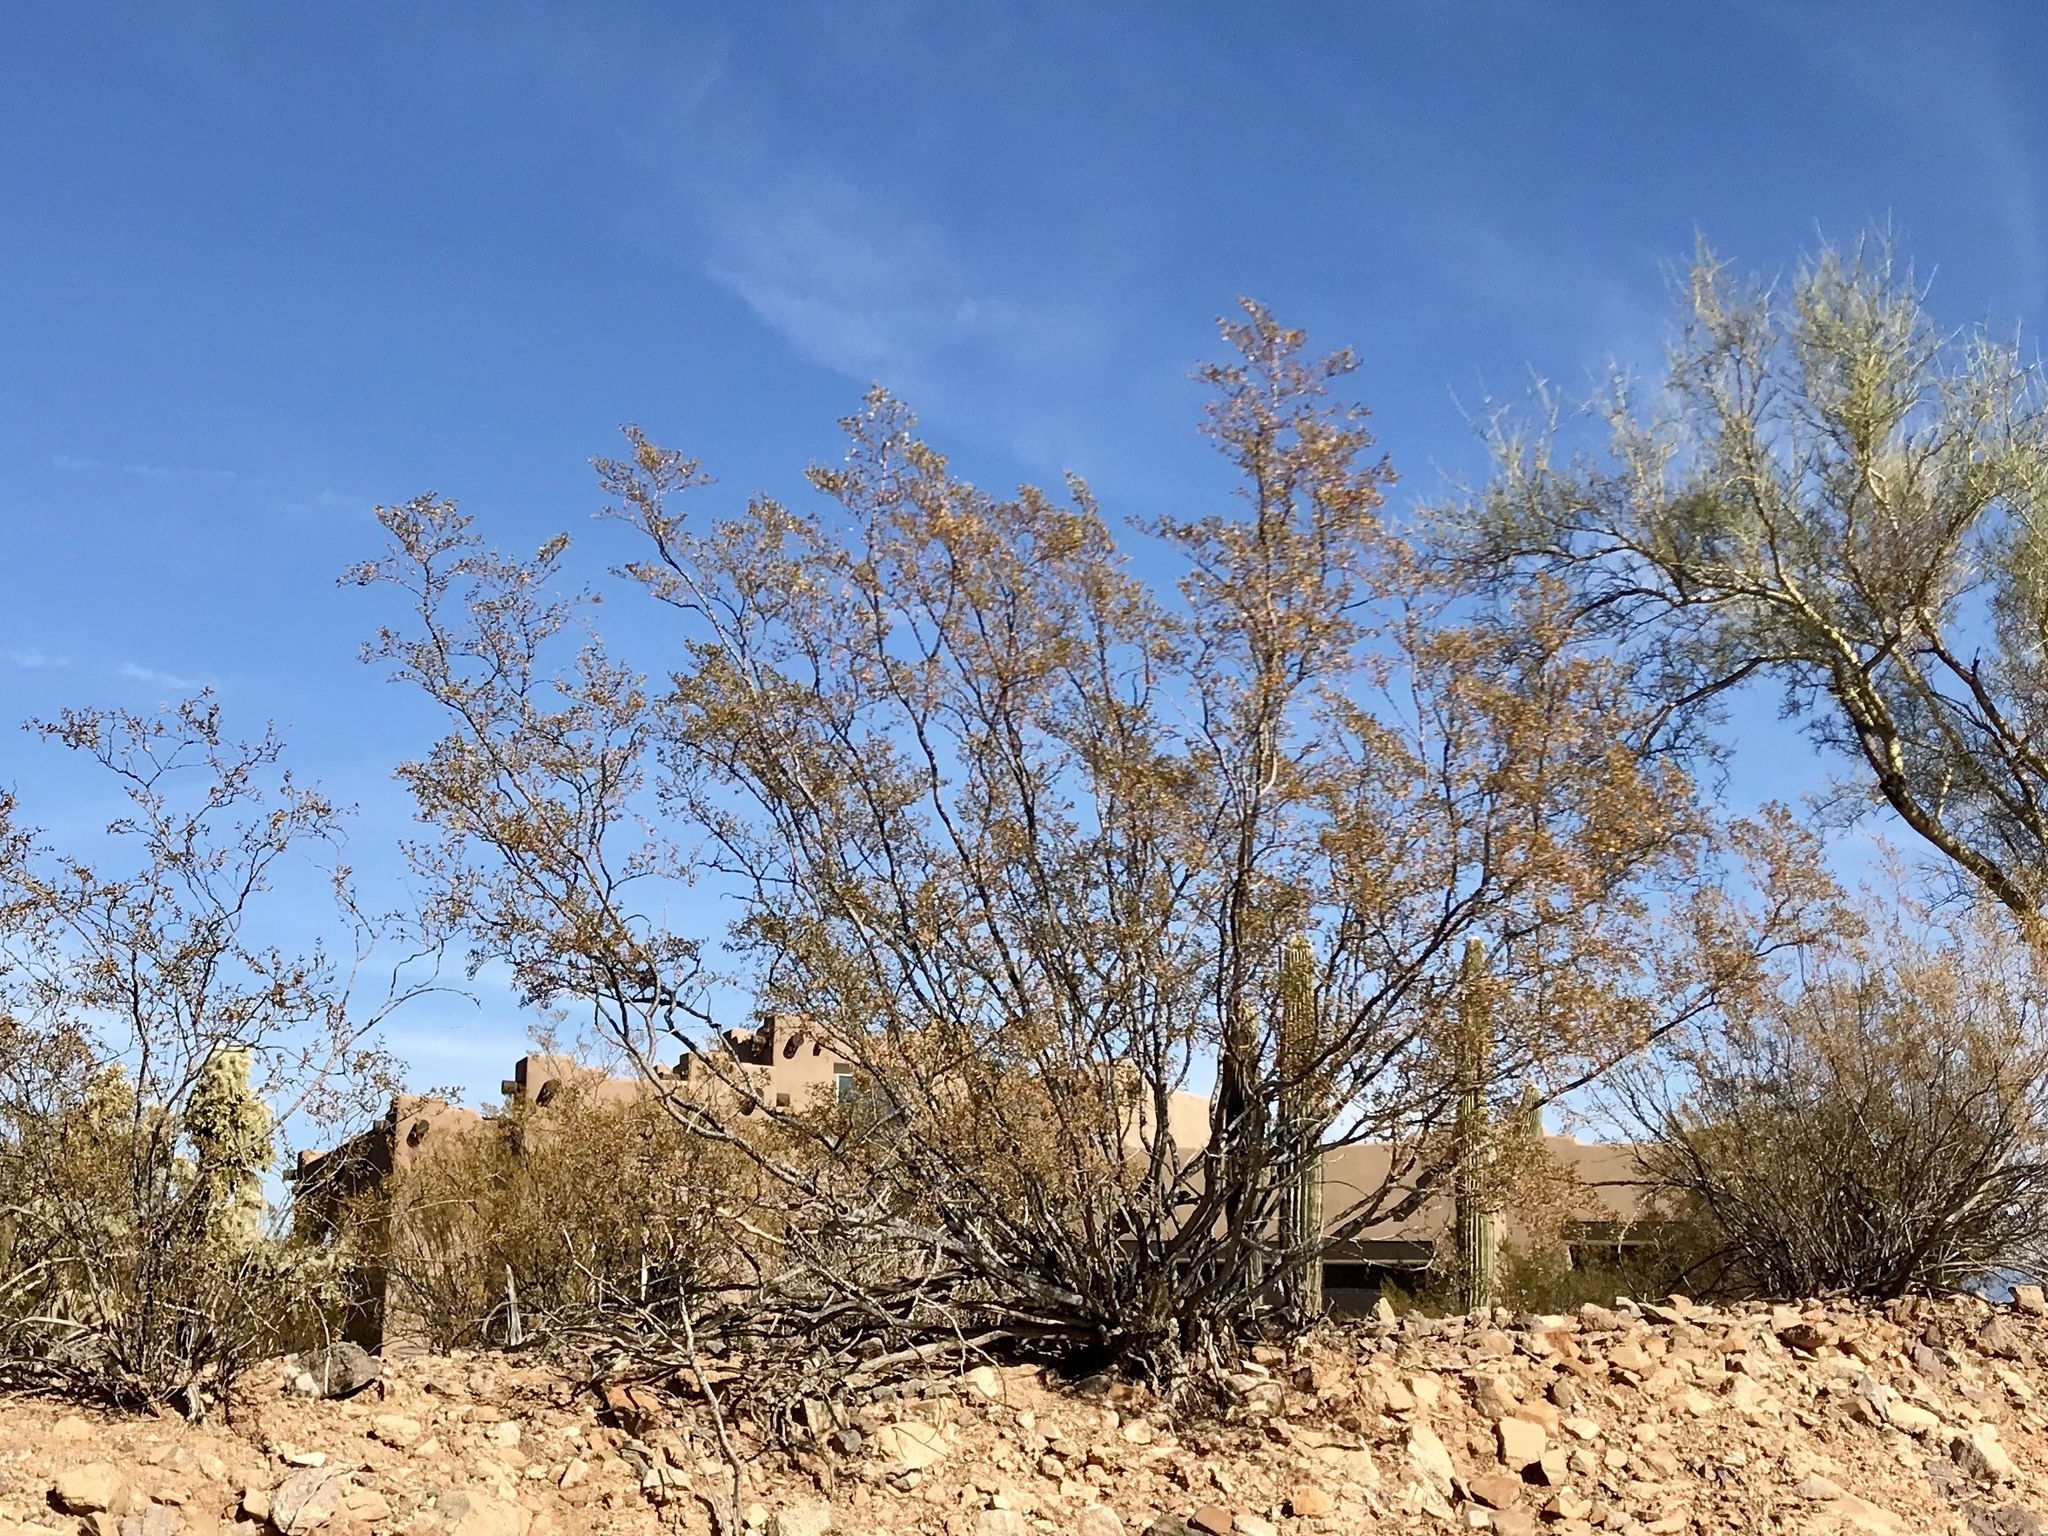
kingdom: Plantae
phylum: Tracheophyta
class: Magnoliopsida
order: Zygophyllales
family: Zygophyllaceae
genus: Larrea
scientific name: Larrea tridentata
